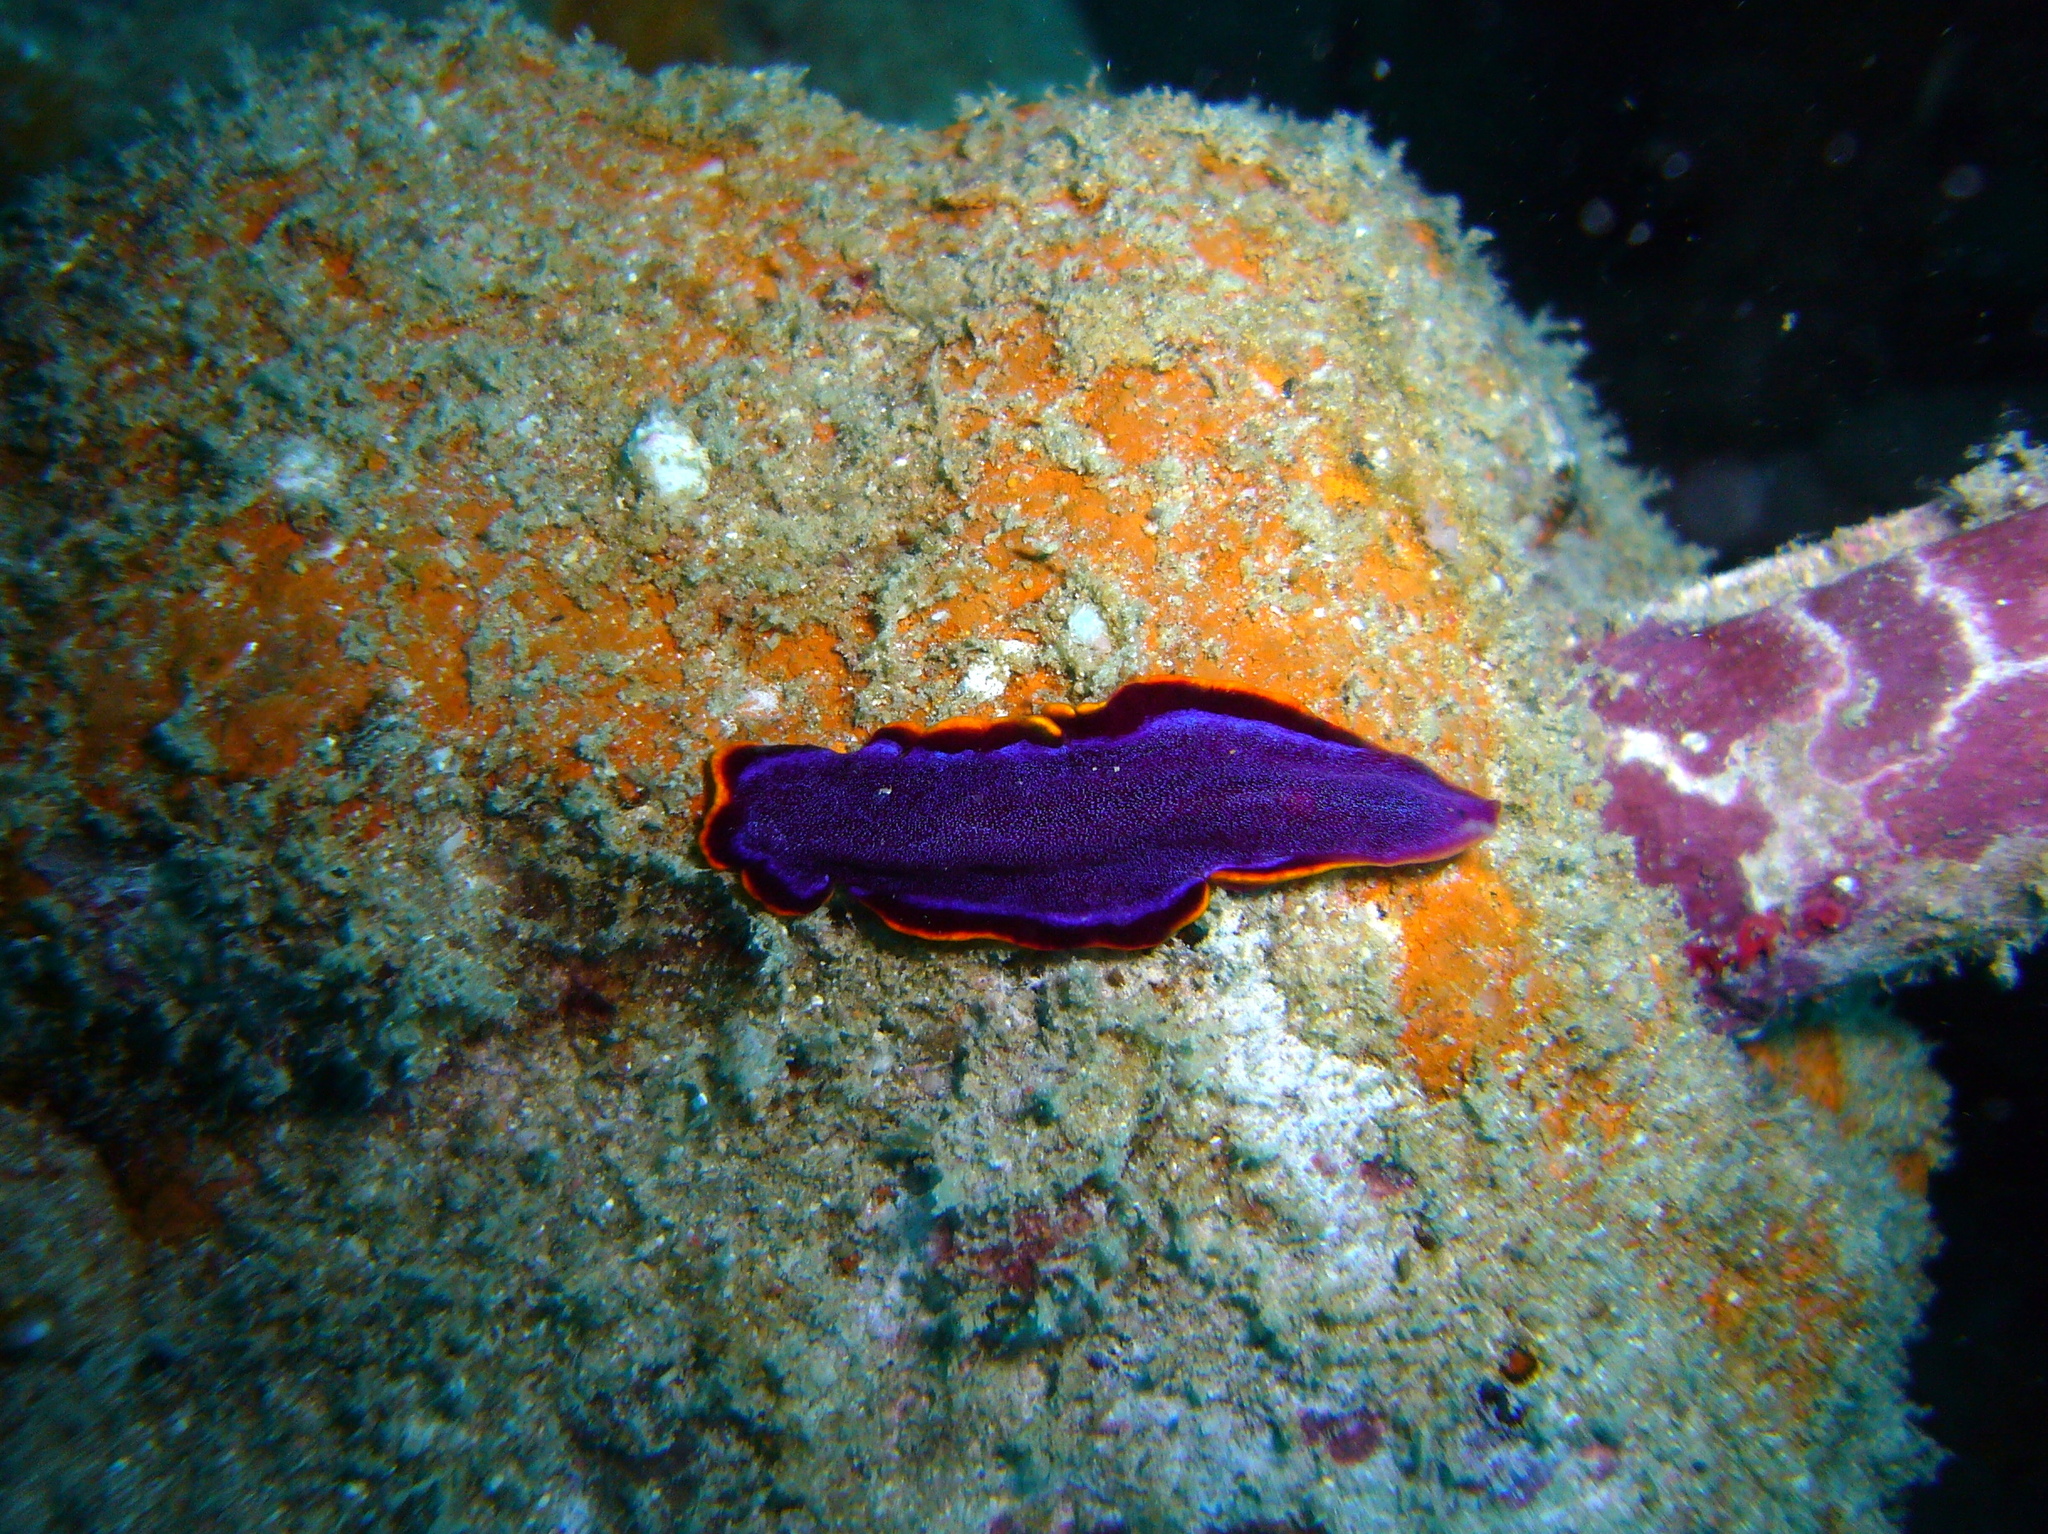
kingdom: Animalia
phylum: Platyhelminthes
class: Turbellaria
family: Pseudocerotidae
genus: Pseudoceros
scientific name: Pseudoceros ferrugineus
